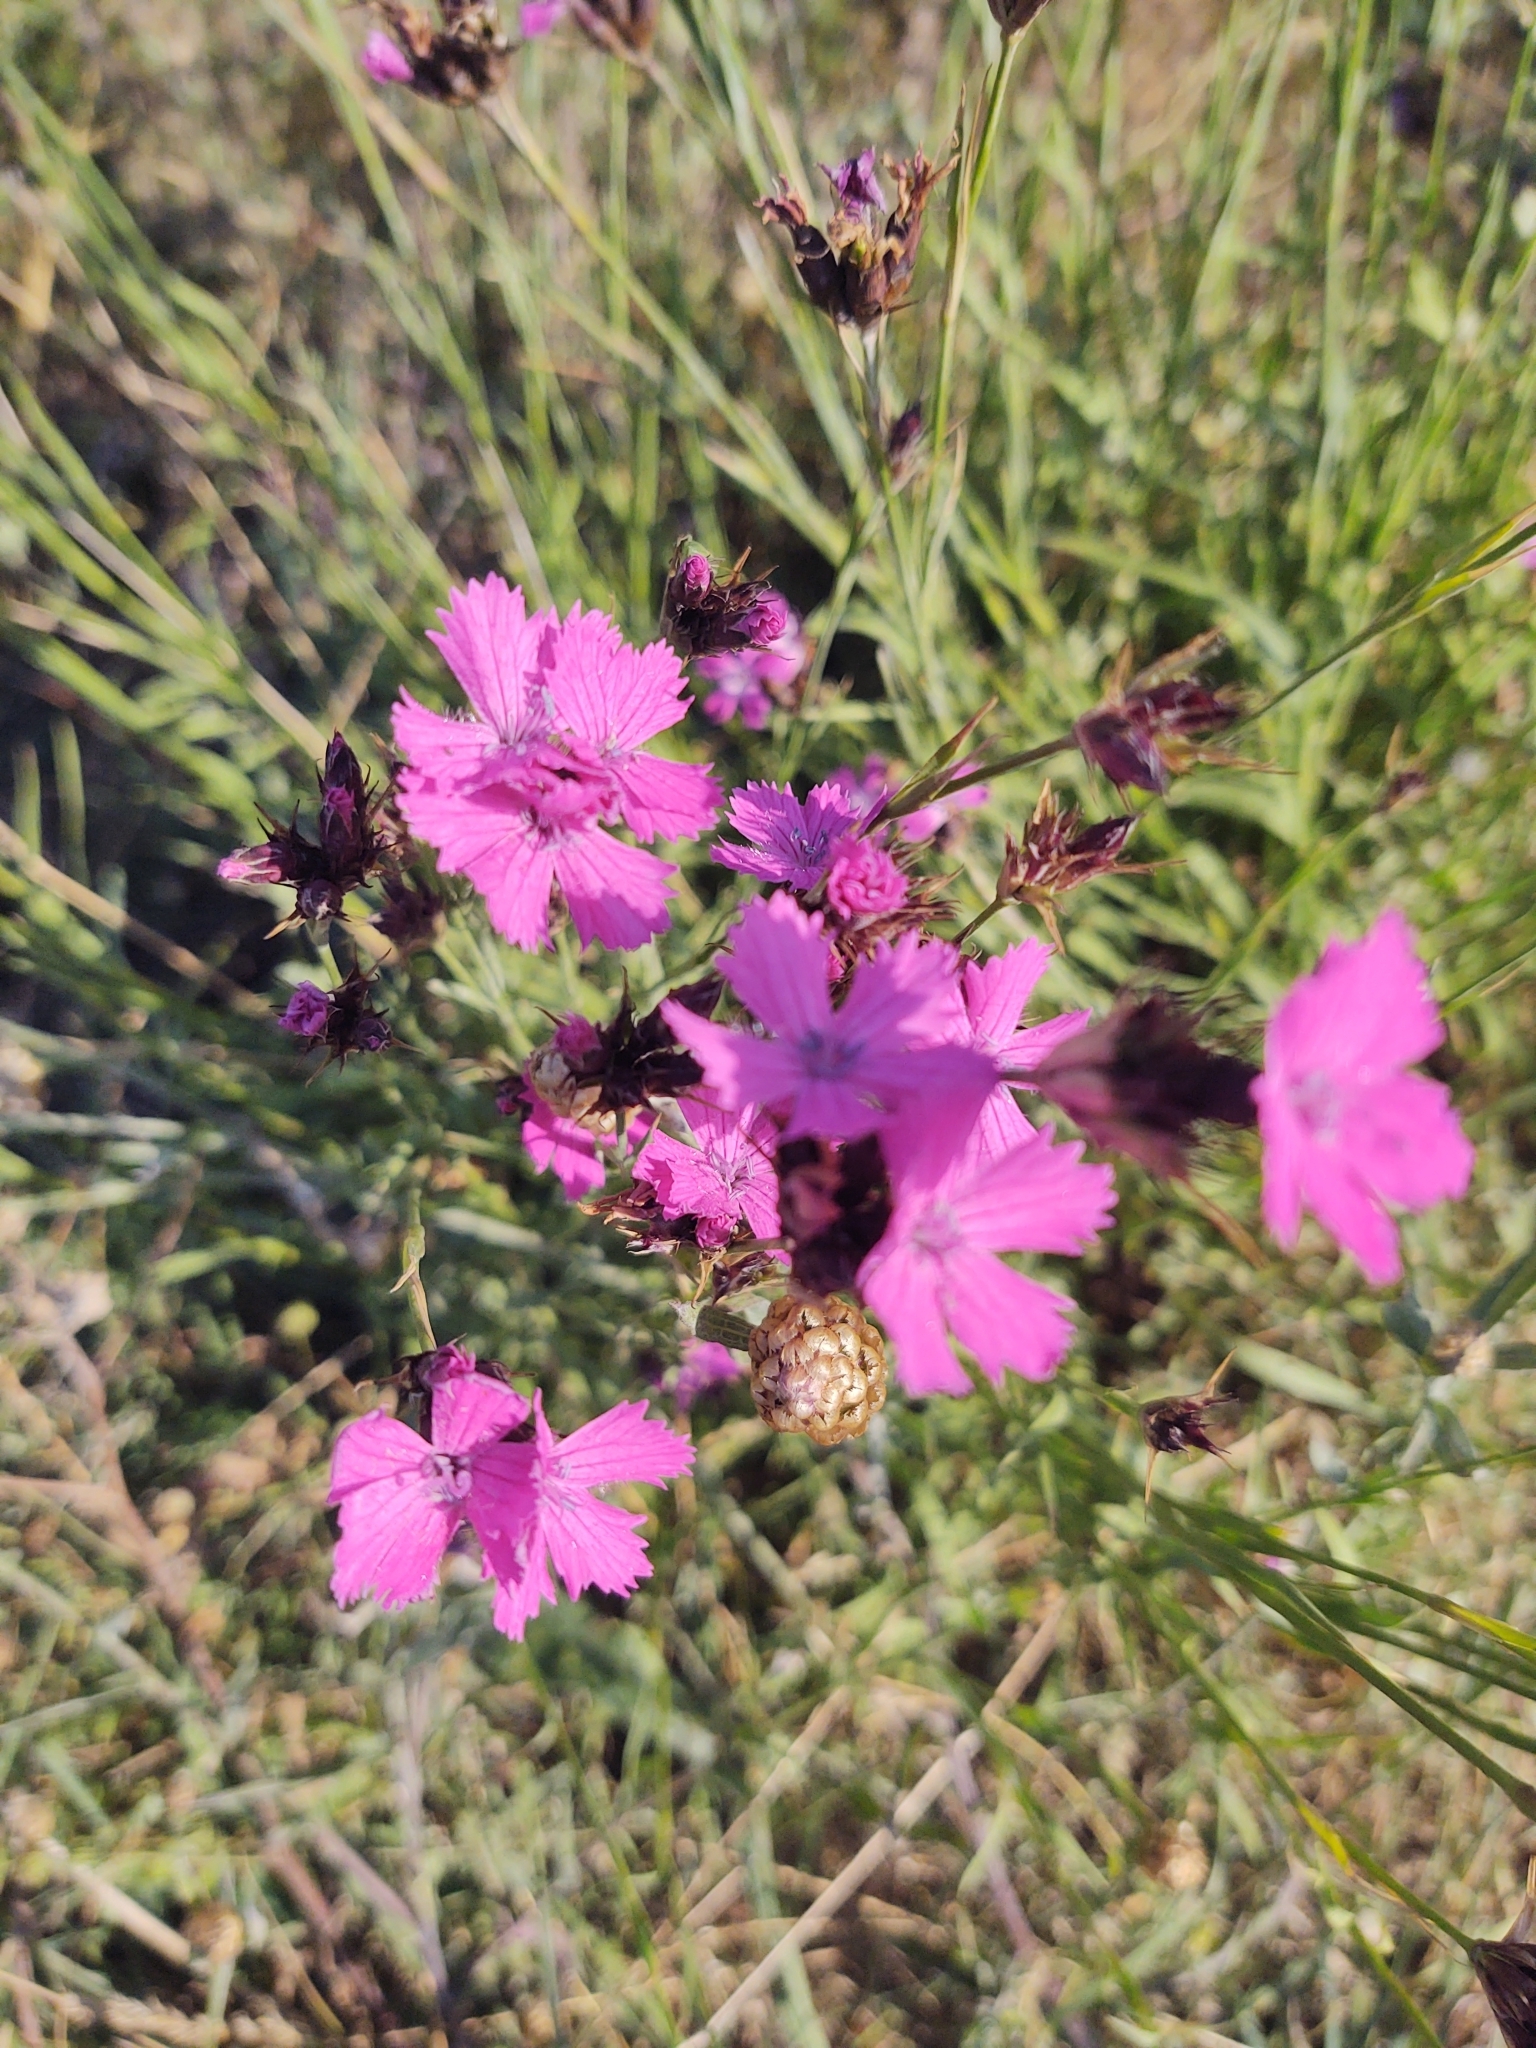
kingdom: Plantae
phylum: Tracheophyta
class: Magnoliopsida
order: Caryophyllales
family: Caryophyllaceae
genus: Dianthus
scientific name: Dianthus carthusianorum
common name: Carthusian pink
